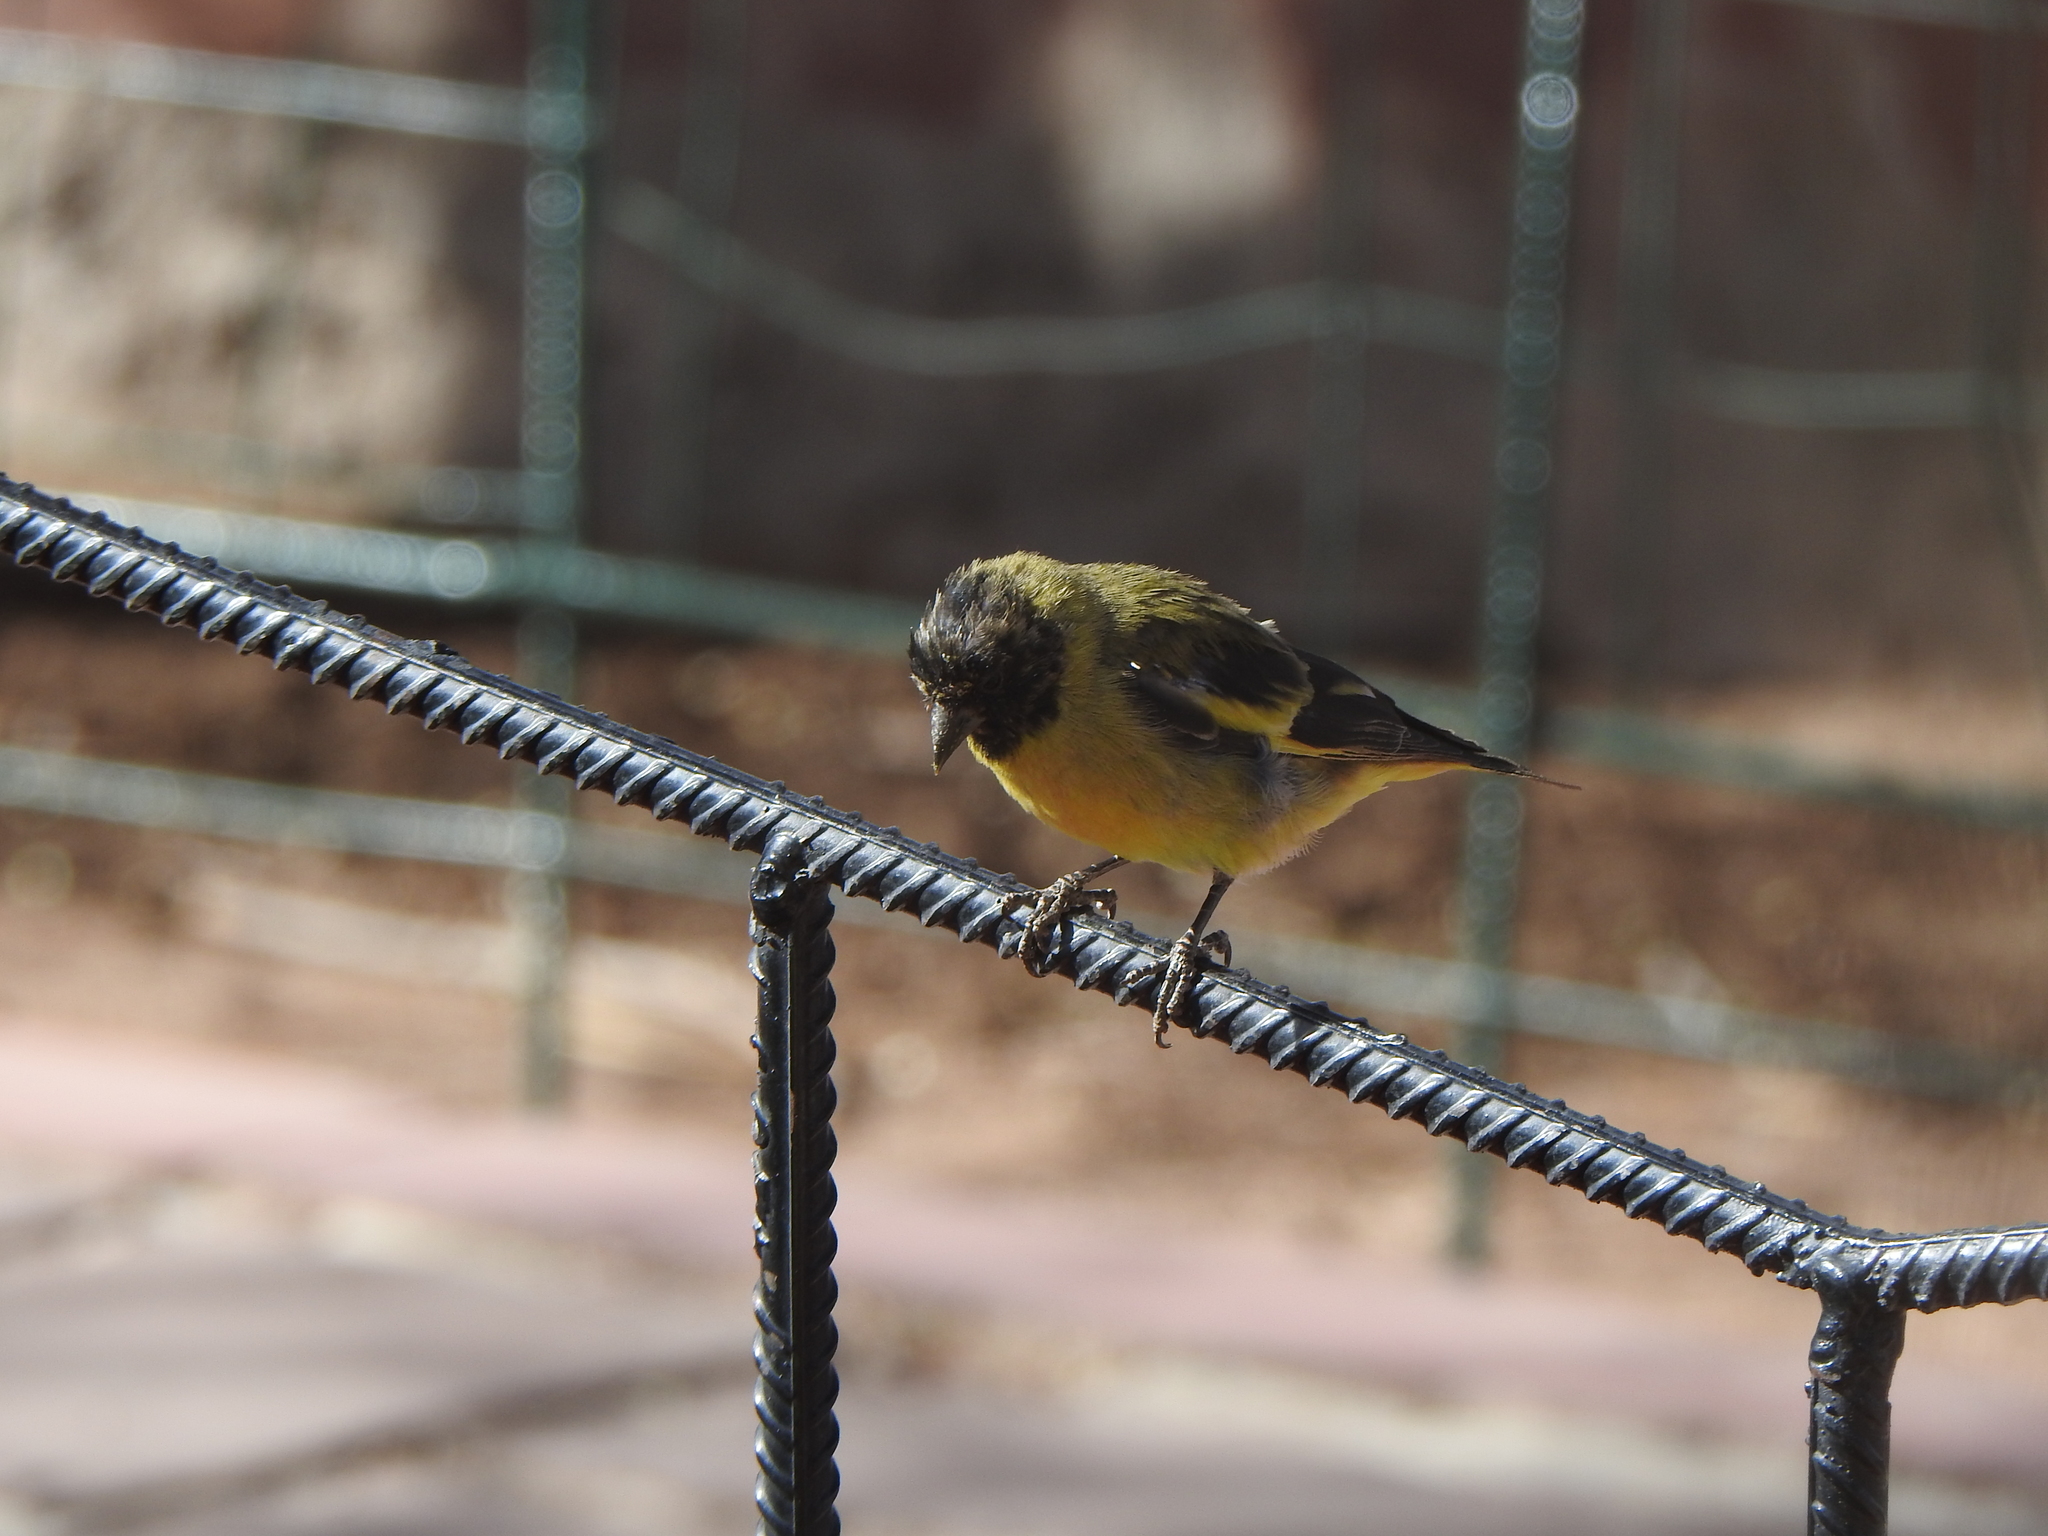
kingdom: Animalia
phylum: Chordata
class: Aves
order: Passeriformes
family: Fringillidae
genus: Spinus
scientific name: Spinus magellanicus
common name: Hooded siskin
